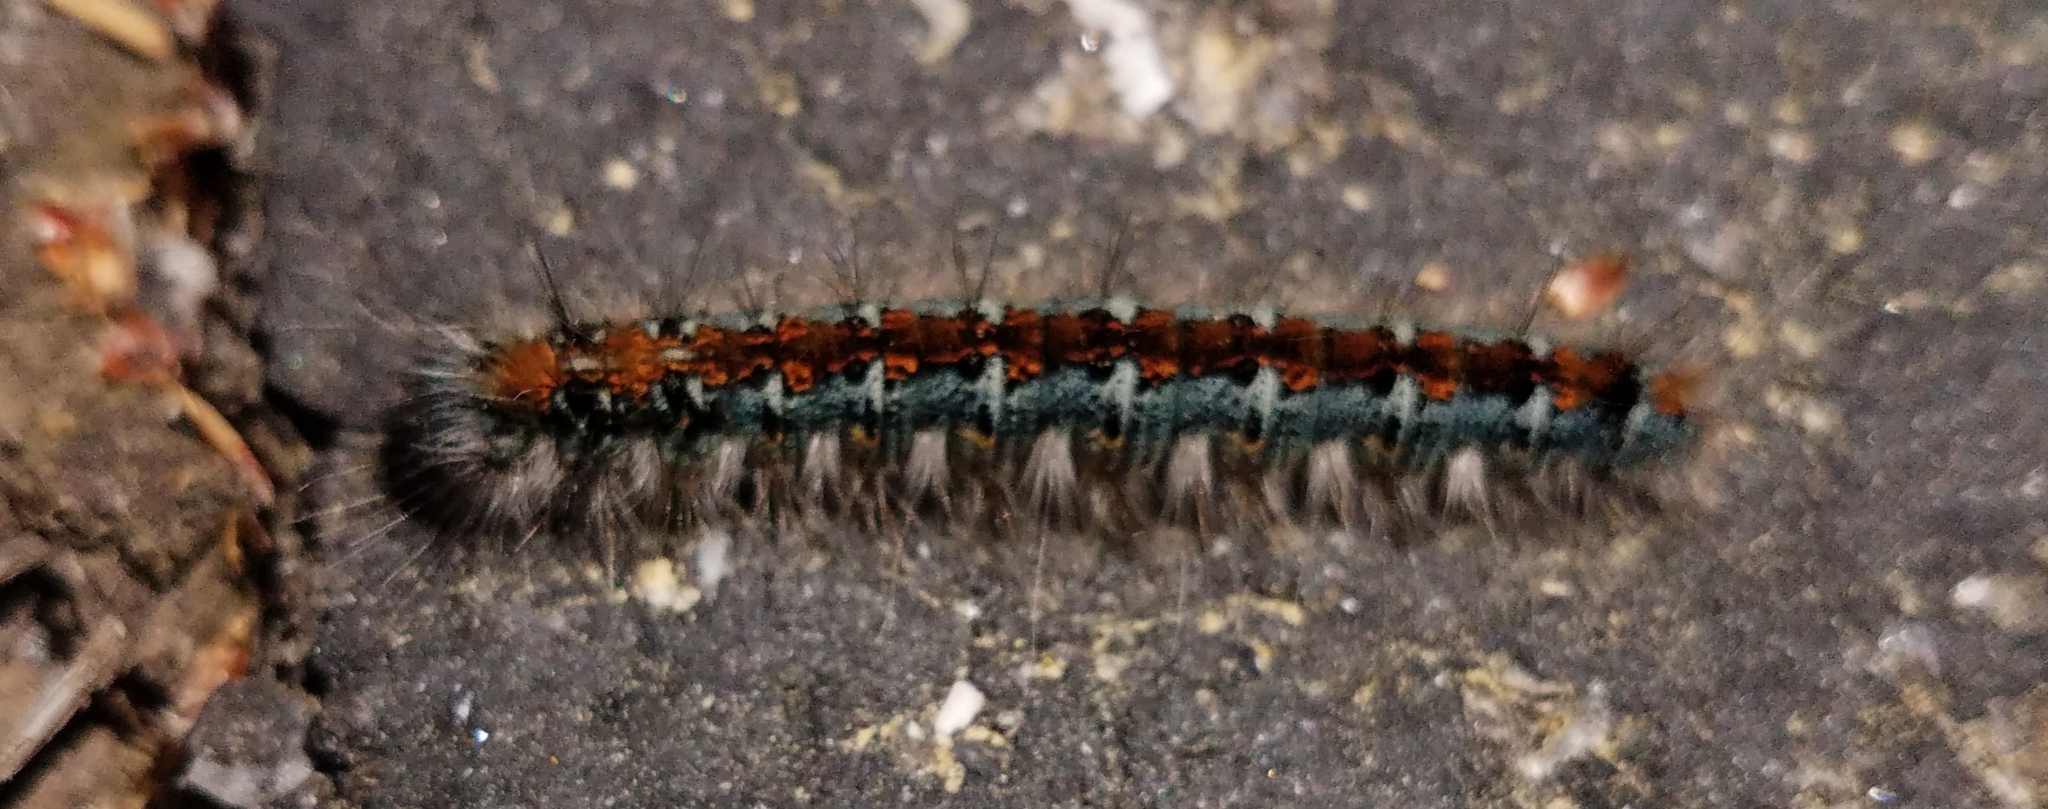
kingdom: Animalia
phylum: Arthropoda
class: Insecta
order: Lepidoptera
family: Lasiocampidae
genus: Malacosoma
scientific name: Malacosoma constricta
